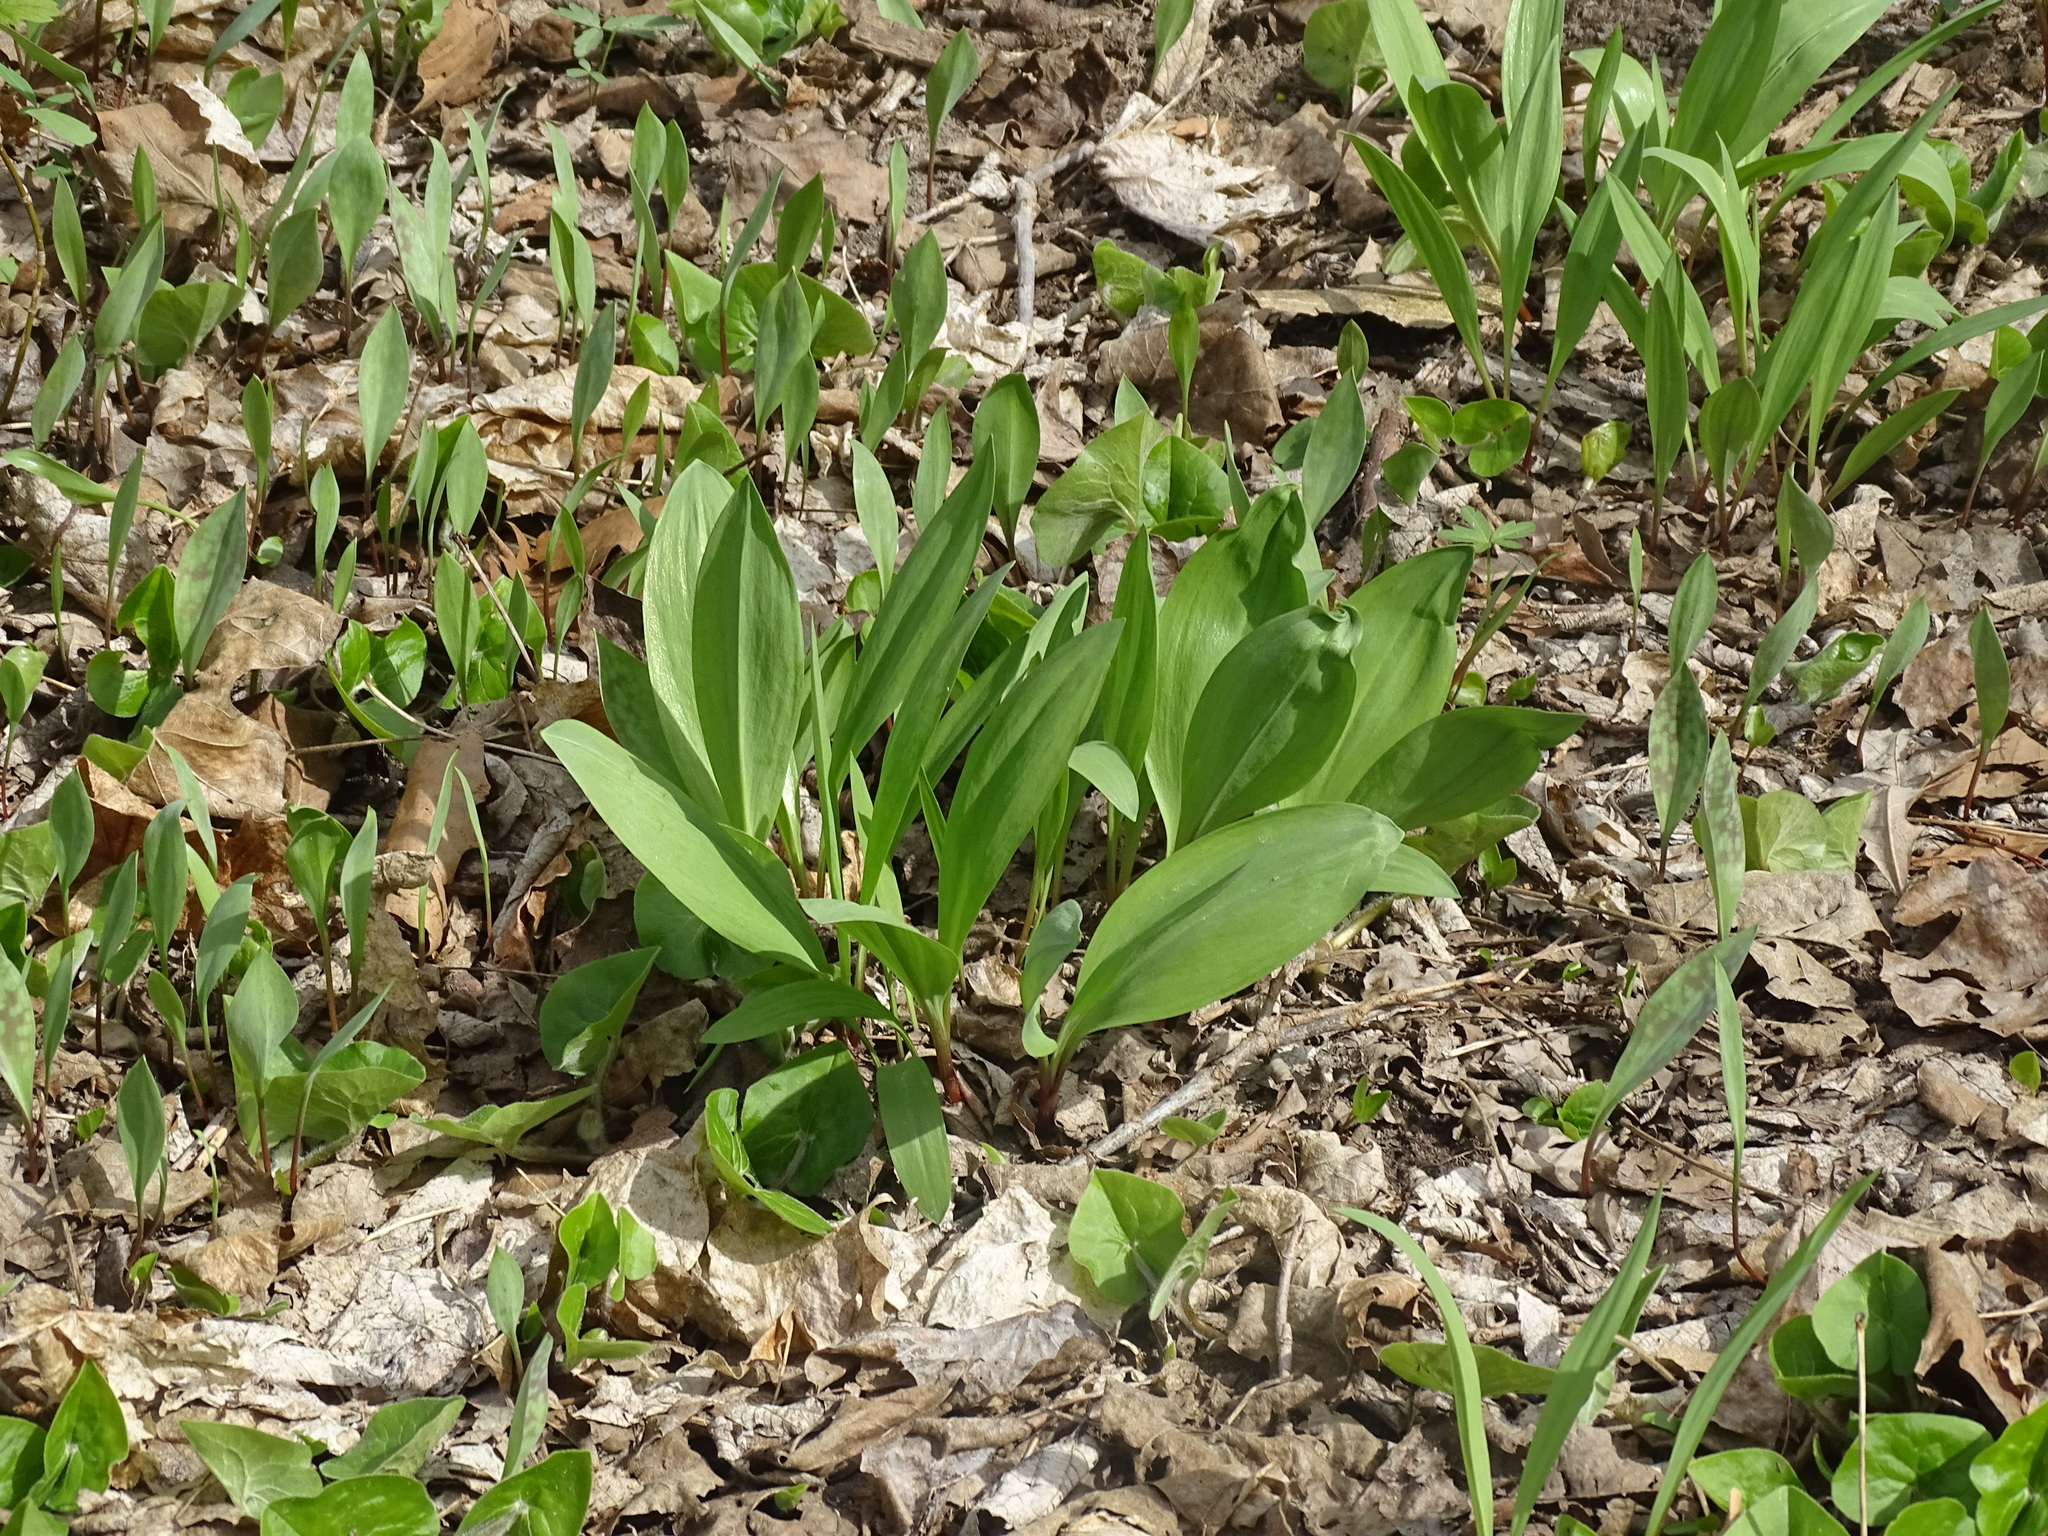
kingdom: Plantae
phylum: Tracheophyta
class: Liliopsida
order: Asparagales
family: Amaryllidaceae
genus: Allium
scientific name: Allium tricoccum
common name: Ramp
